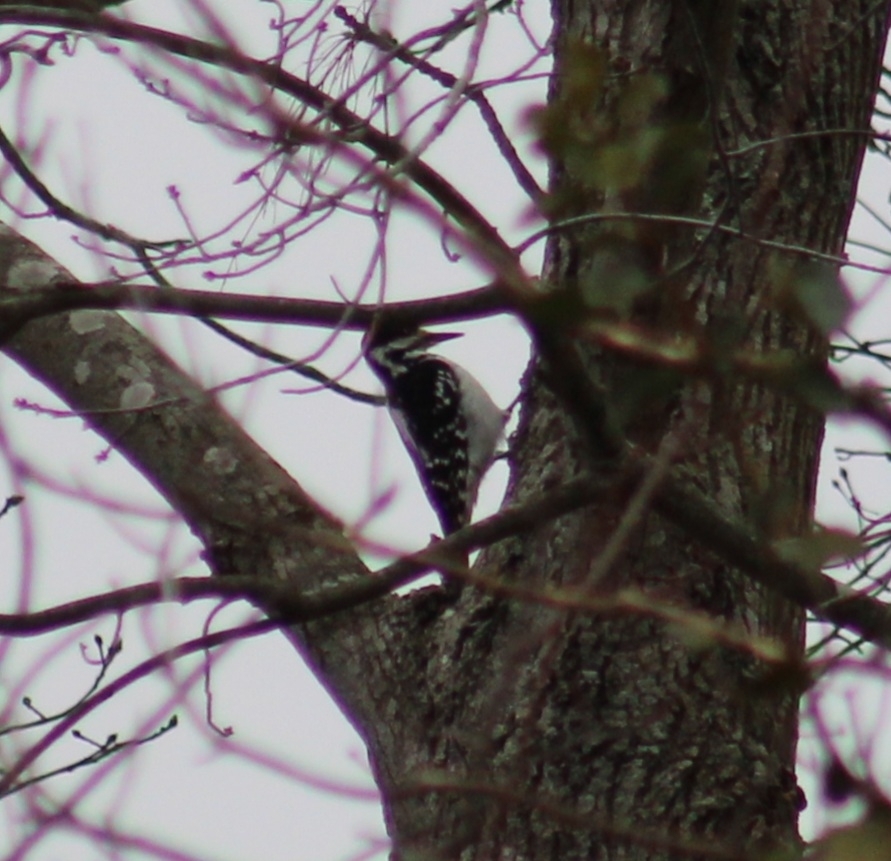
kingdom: Animalia
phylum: Chordata
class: Aves
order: Piciformes
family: Picidae
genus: Leuconotopicus
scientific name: Leuconotopicus villosus
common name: Hairy woodpecker
